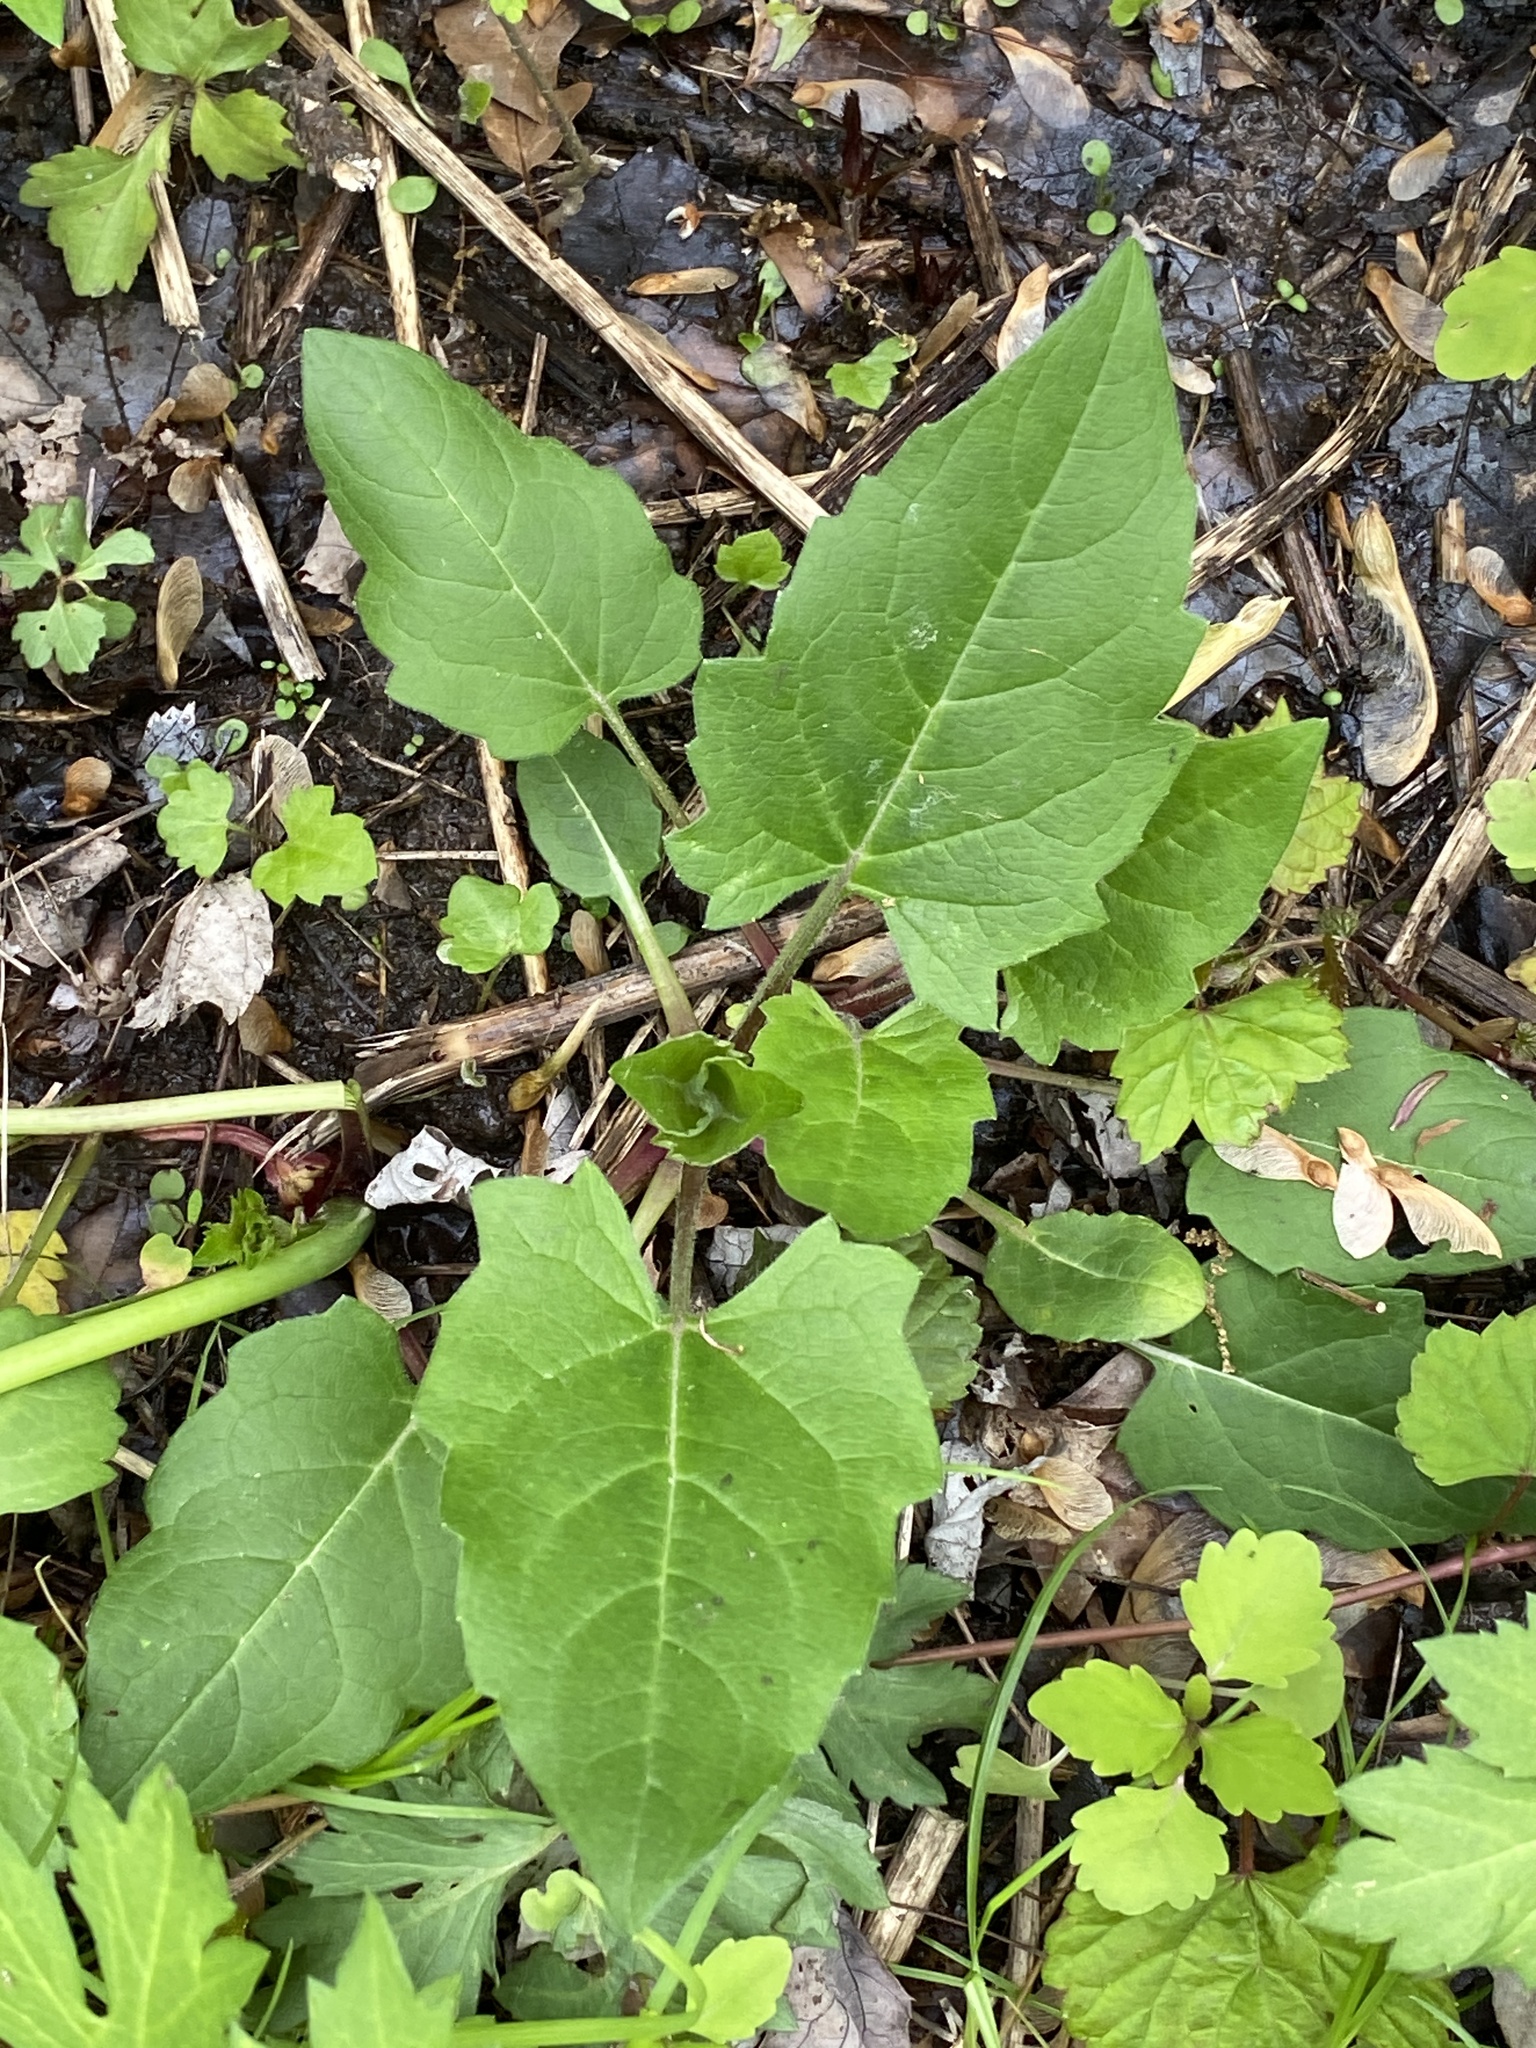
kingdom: Plantae
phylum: Tracheophyta
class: Magnoliopsida
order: Asterales
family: Asteraceae
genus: Silphium
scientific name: Silphium perfoliatum
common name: Cup-plant
